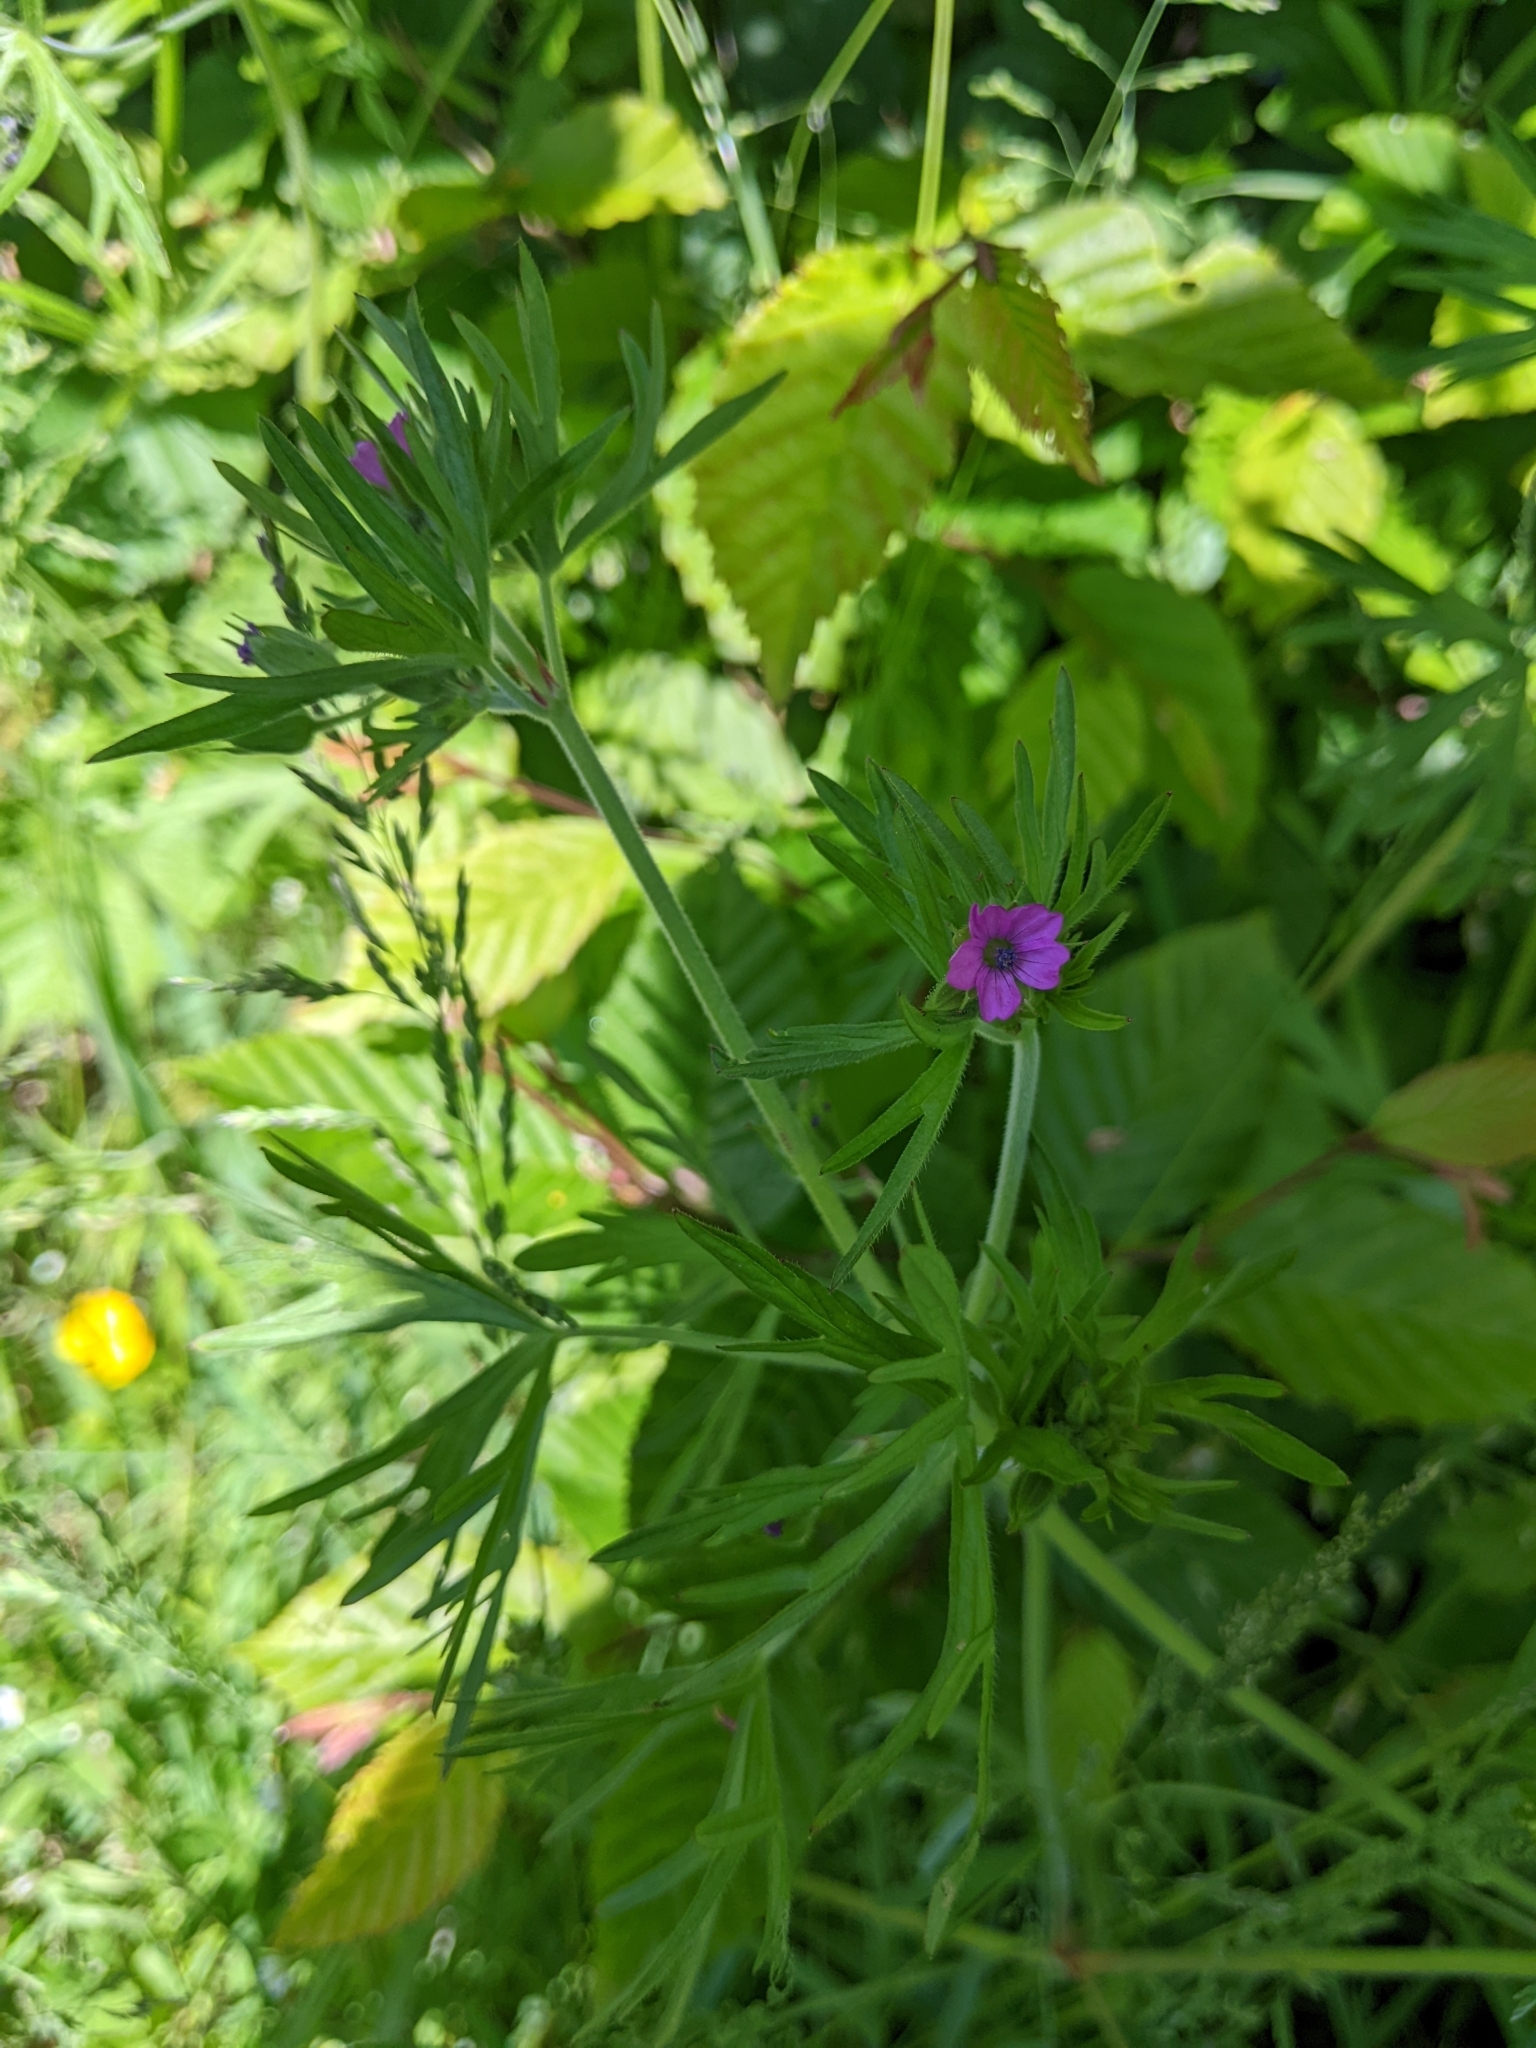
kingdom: Plantae
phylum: Tracheophyta
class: Magnoliopsida
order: Geraniales
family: Geraniaceae
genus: Geranium
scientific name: Geranium dissectum
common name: Cut-leaved crane's-bill
